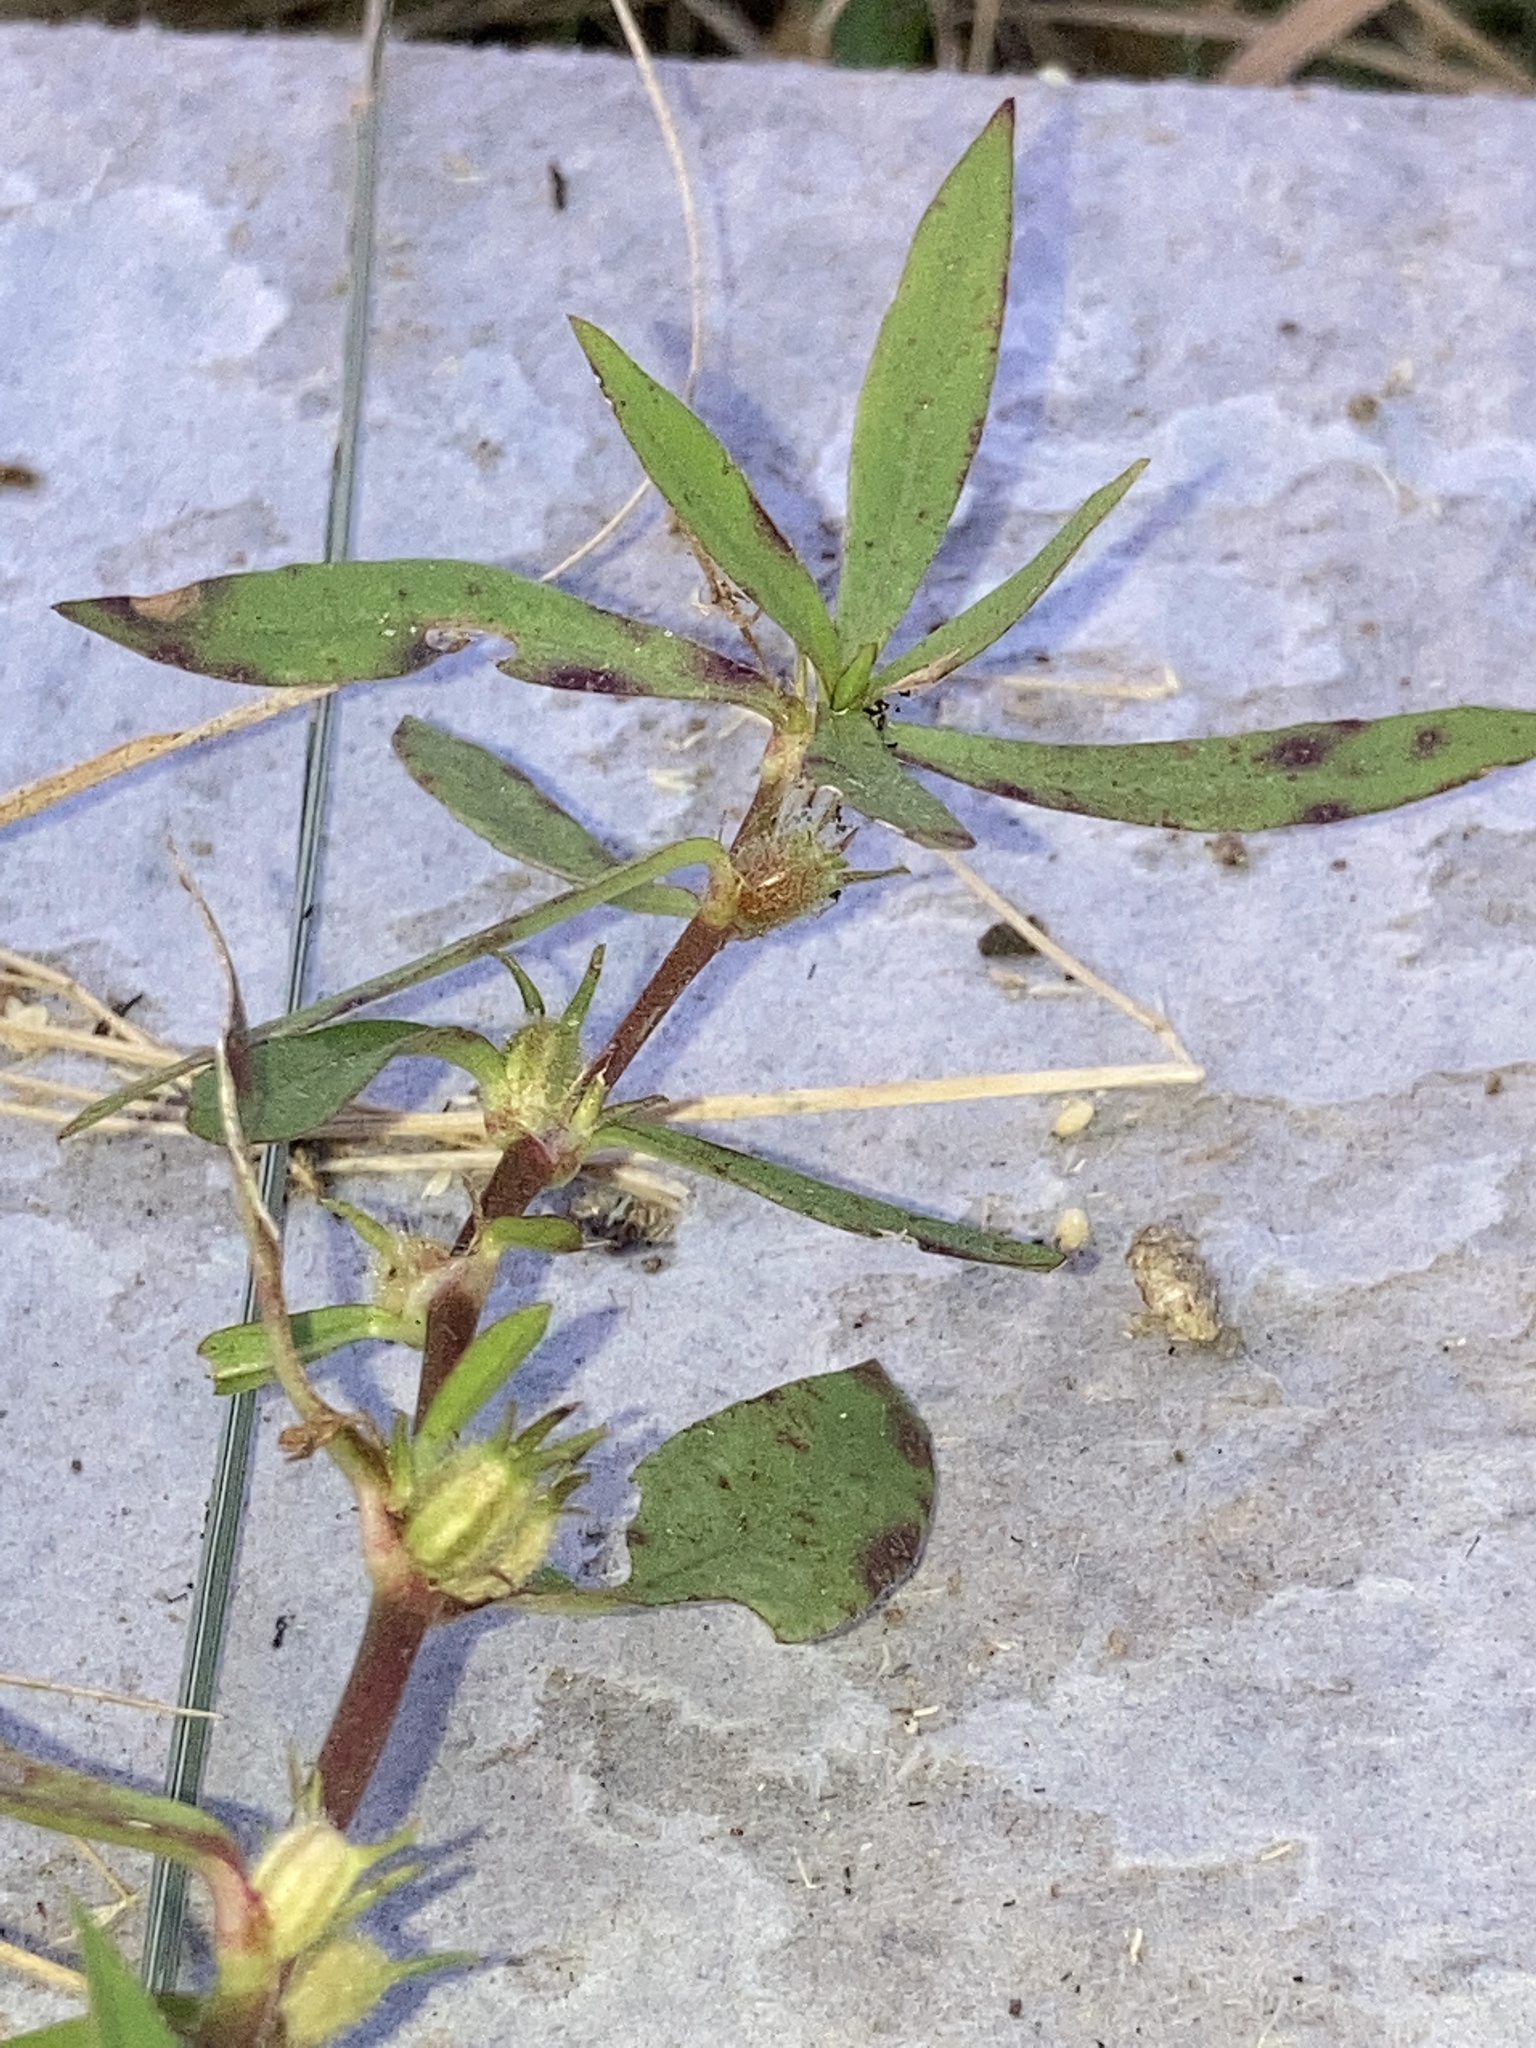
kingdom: Plantae
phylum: Tracheophyta
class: Magnoliopsida
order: Gentianales
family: Rubiaceae
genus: Diodia
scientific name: Diodia virginiana
